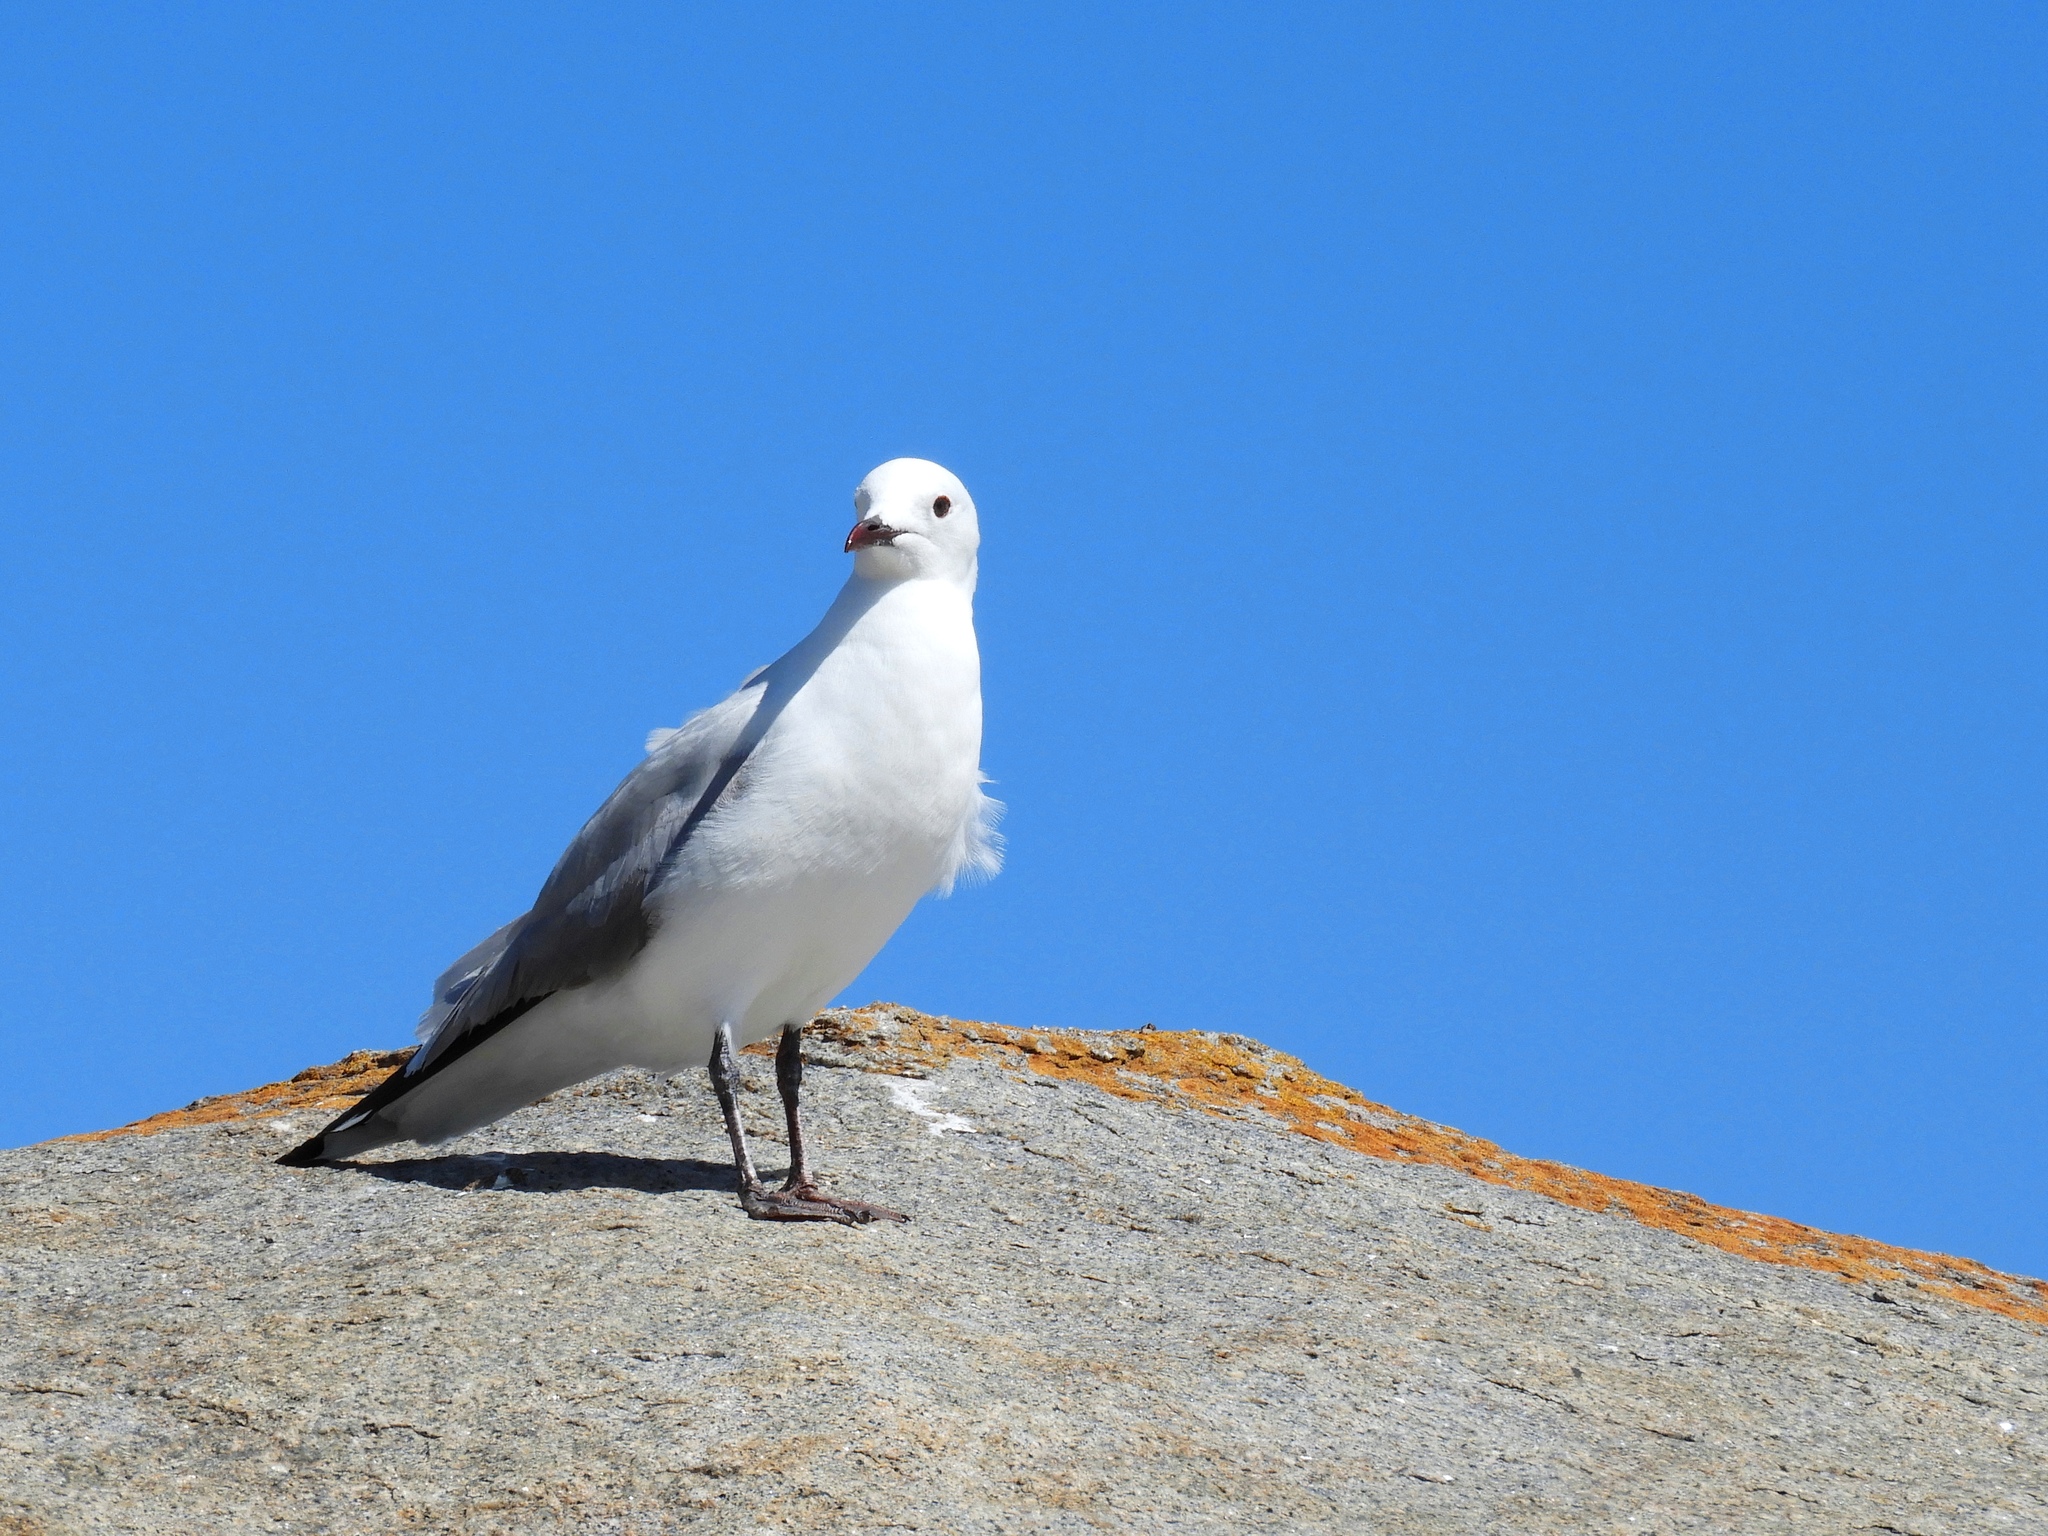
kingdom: Animalia
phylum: Chordata
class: Aves
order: Charadriiformes
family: Laridae
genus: Chroicocephalus
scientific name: Chroicocephalus hartlaubii
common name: Hartlaub's gull
